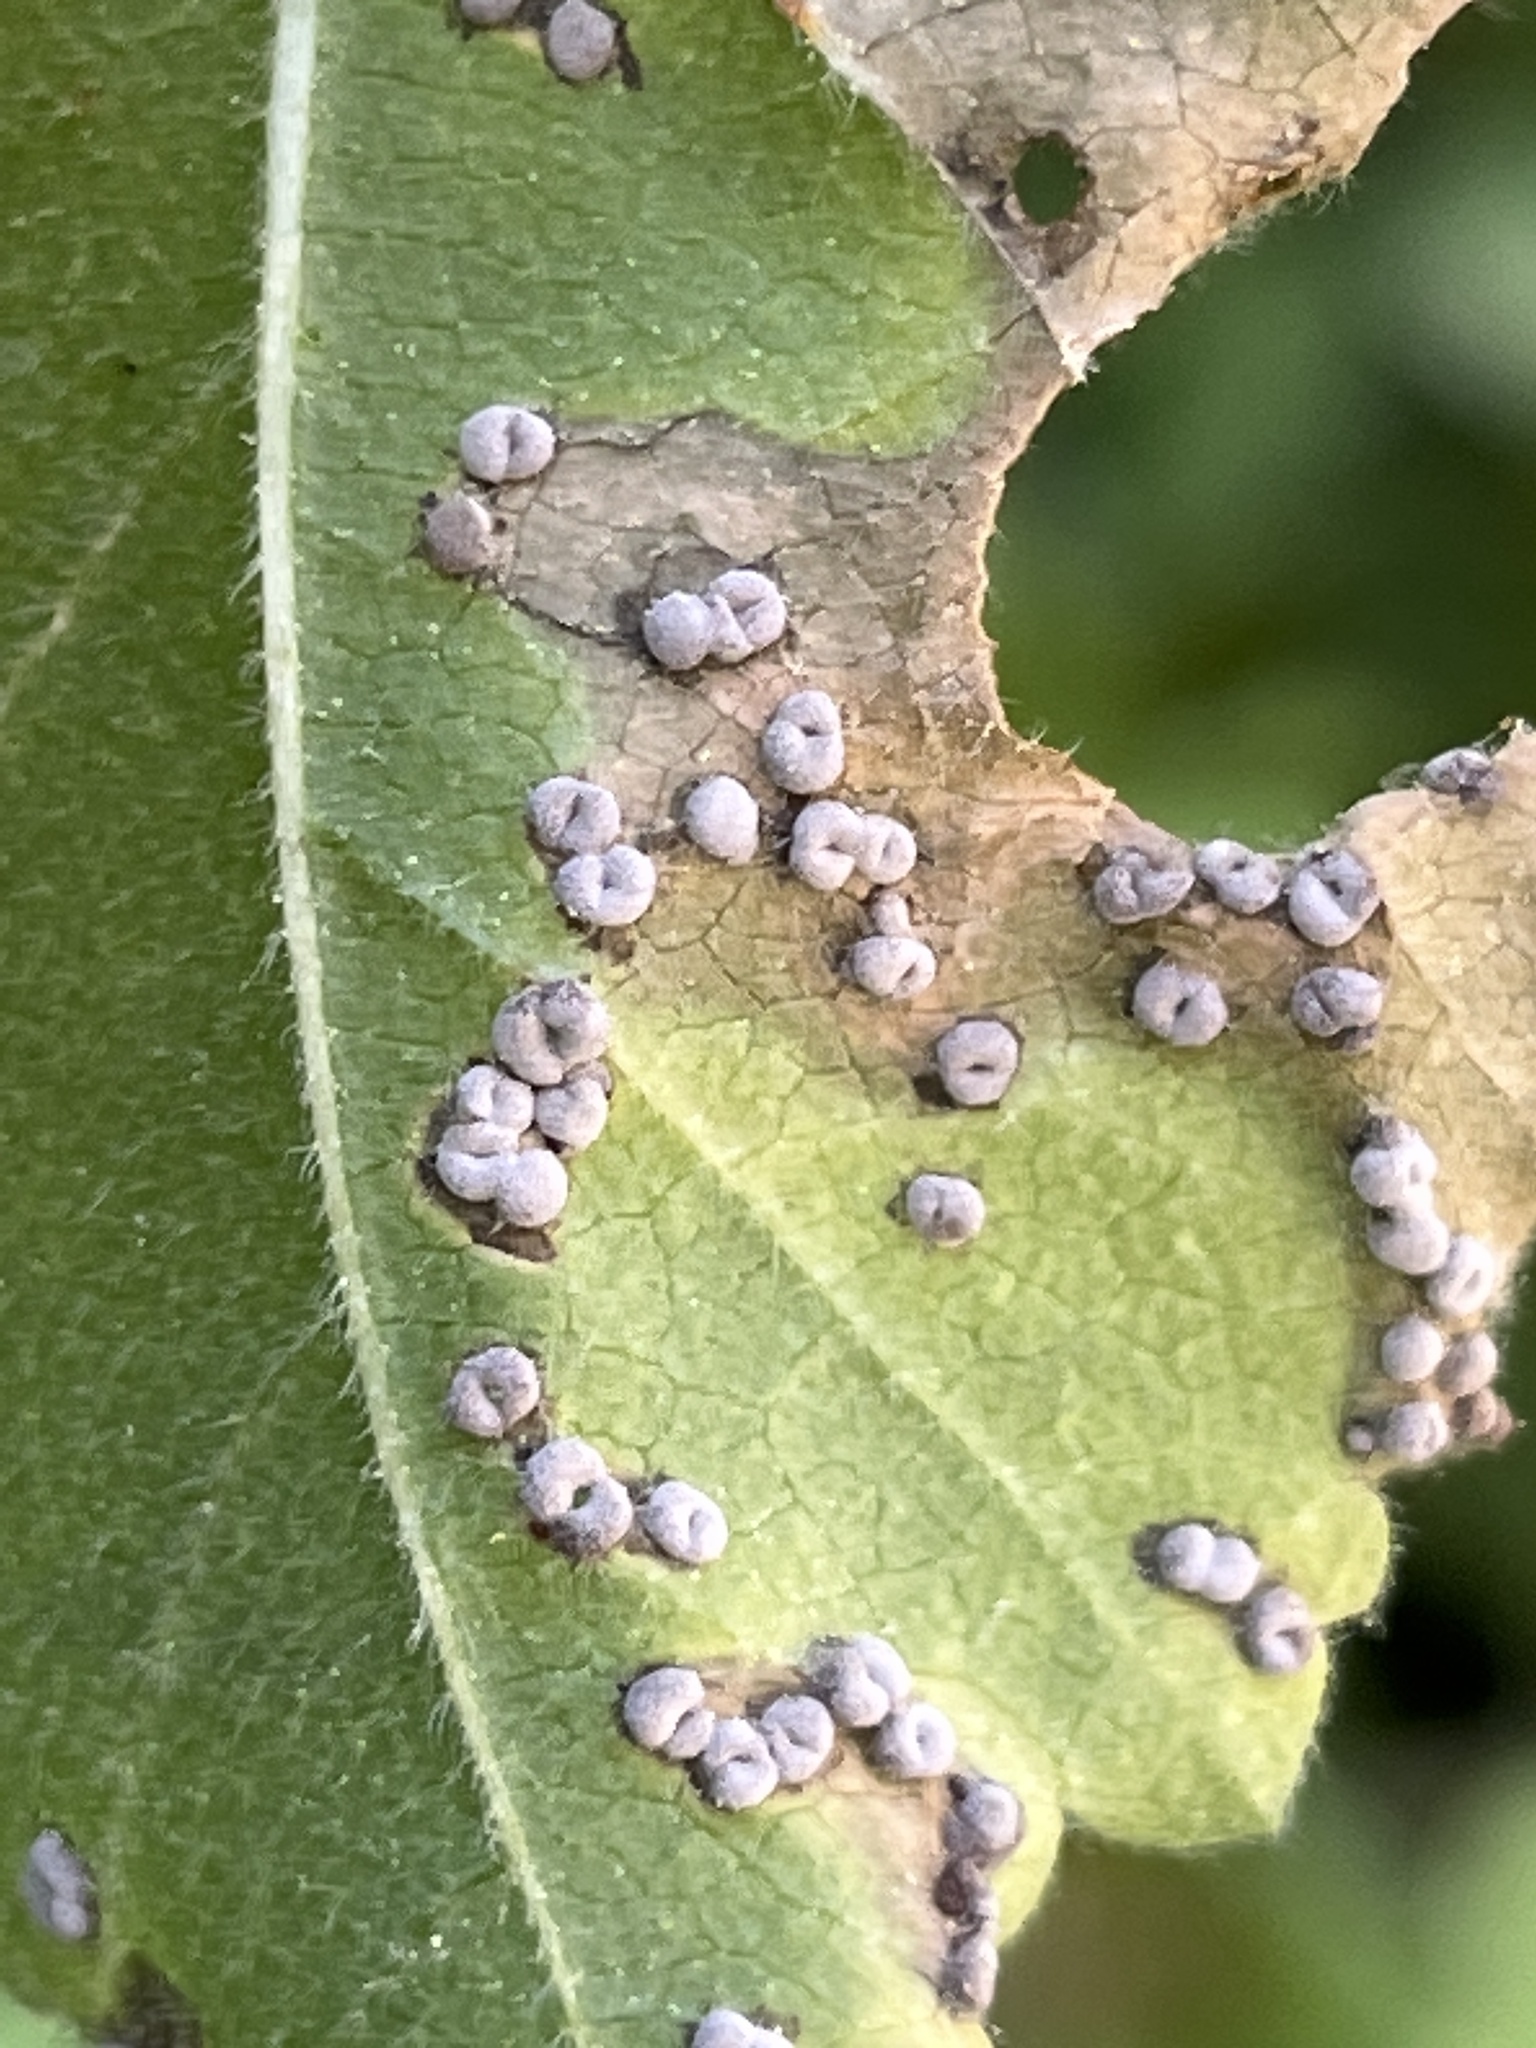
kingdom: Fungi
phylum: Basidiomycota
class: Pucciniomycetes
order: Pucciniales
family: Pucciniaceae
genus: Puccinia
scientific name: Puccinia malvacearum
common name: Hollyhock rust
